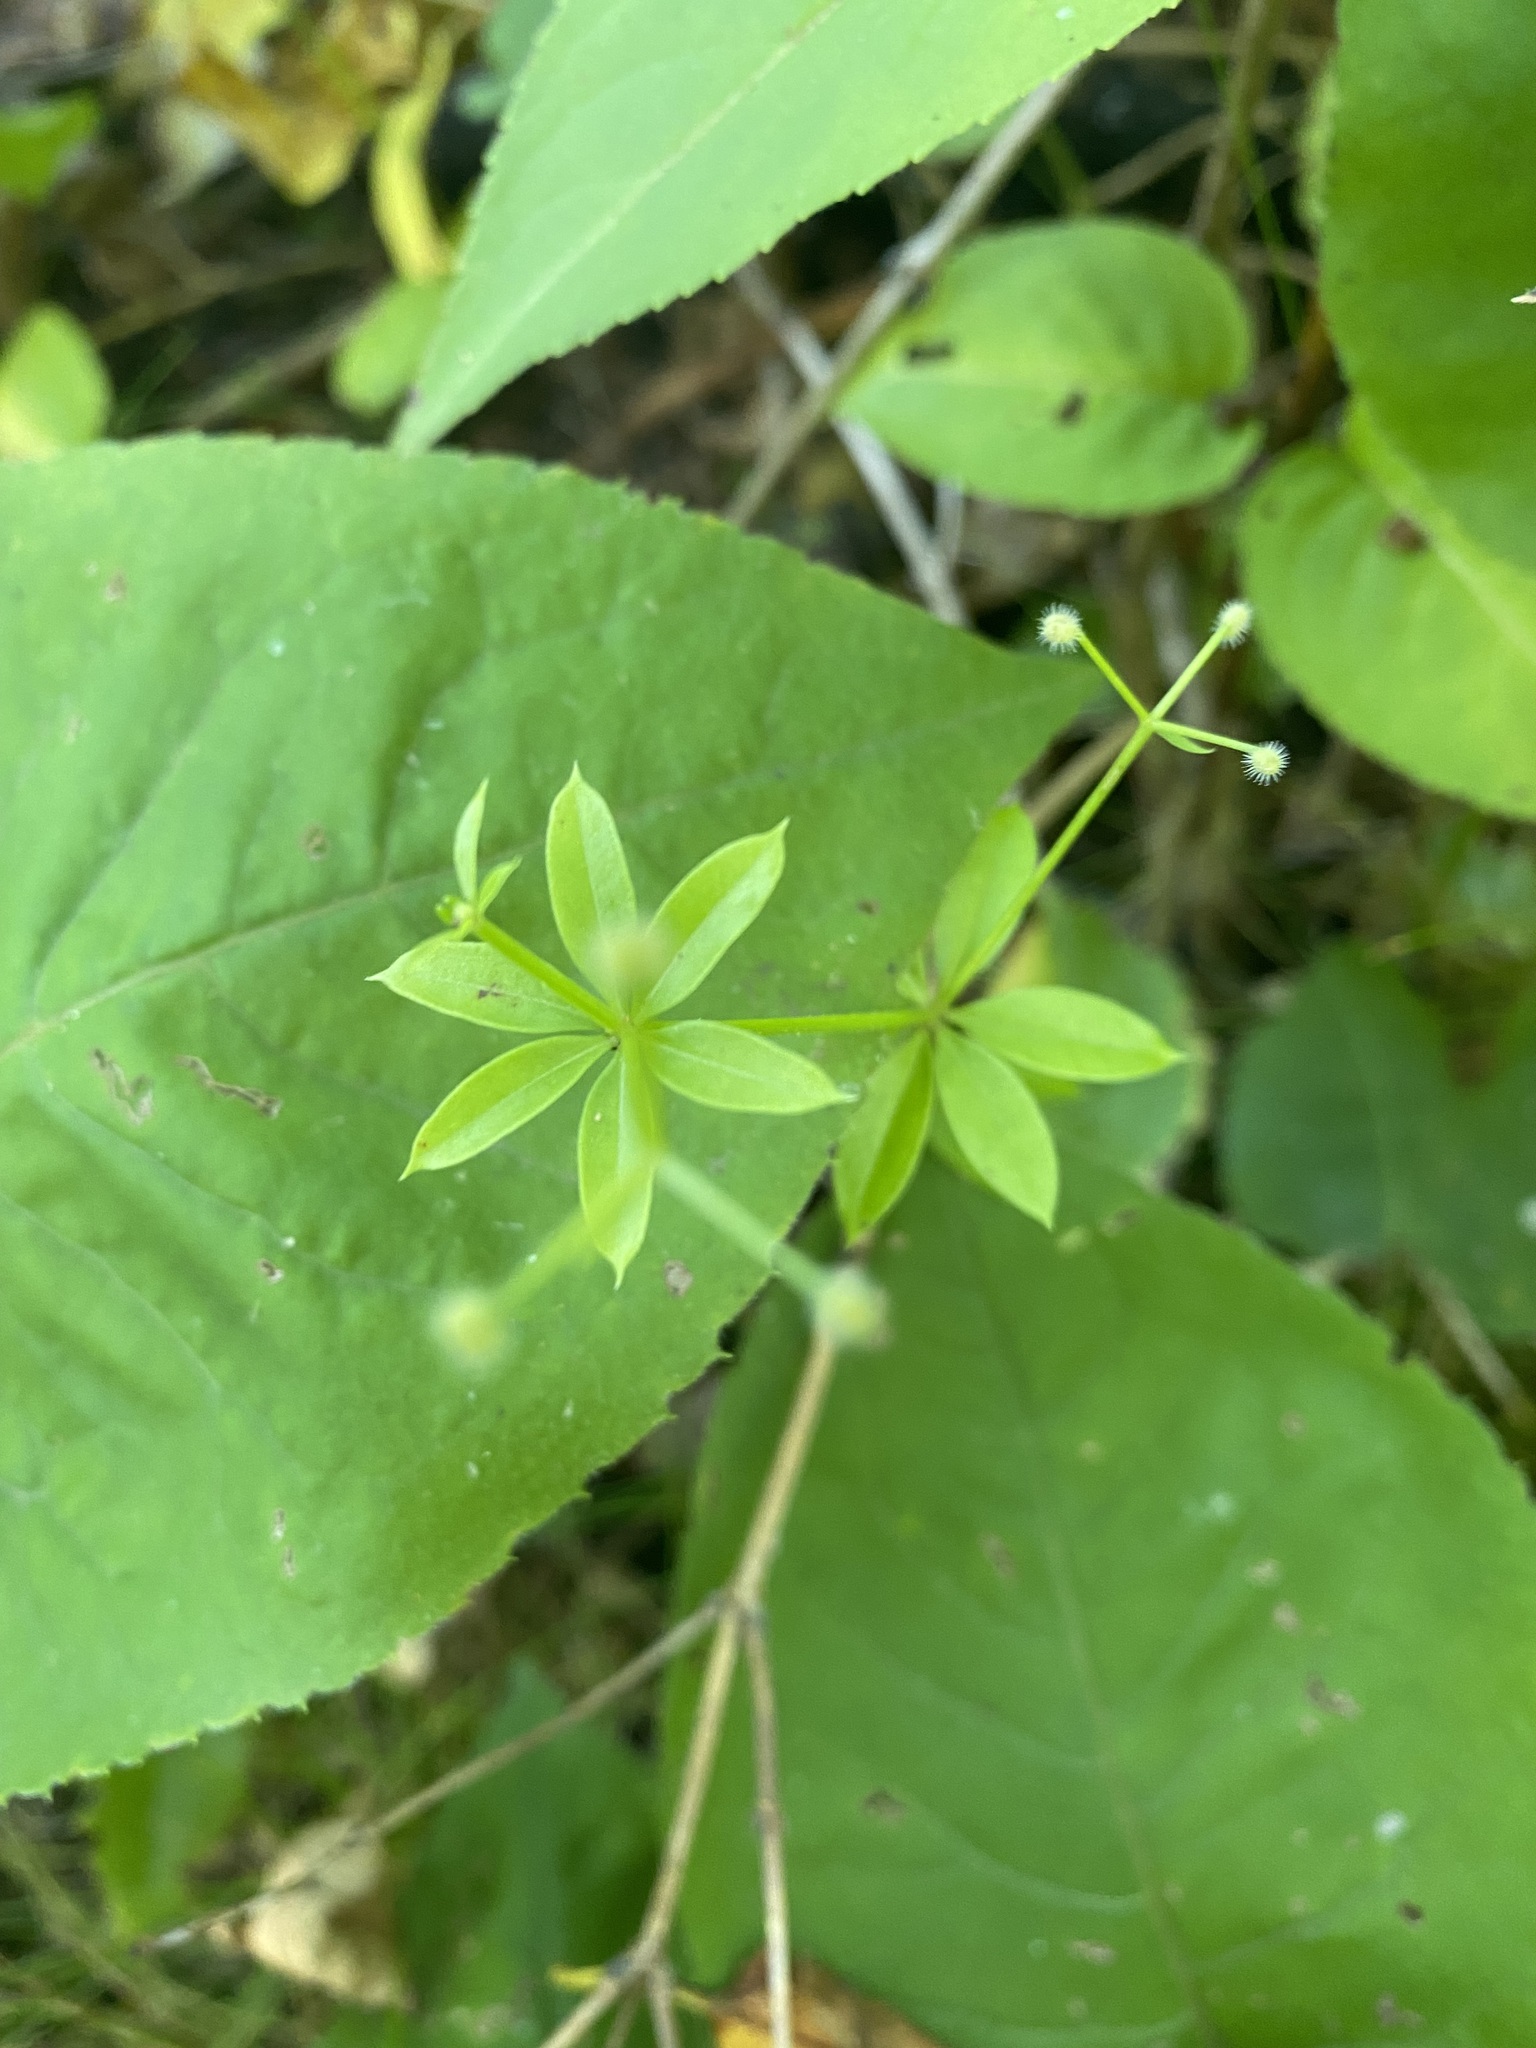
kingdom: Plantae
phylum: Tracheophyta
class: Magnoliopsida
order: Gentianales
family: Rubiaceae
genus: Galium
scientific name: Galium triflorum
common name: Fragrant bedstraw
